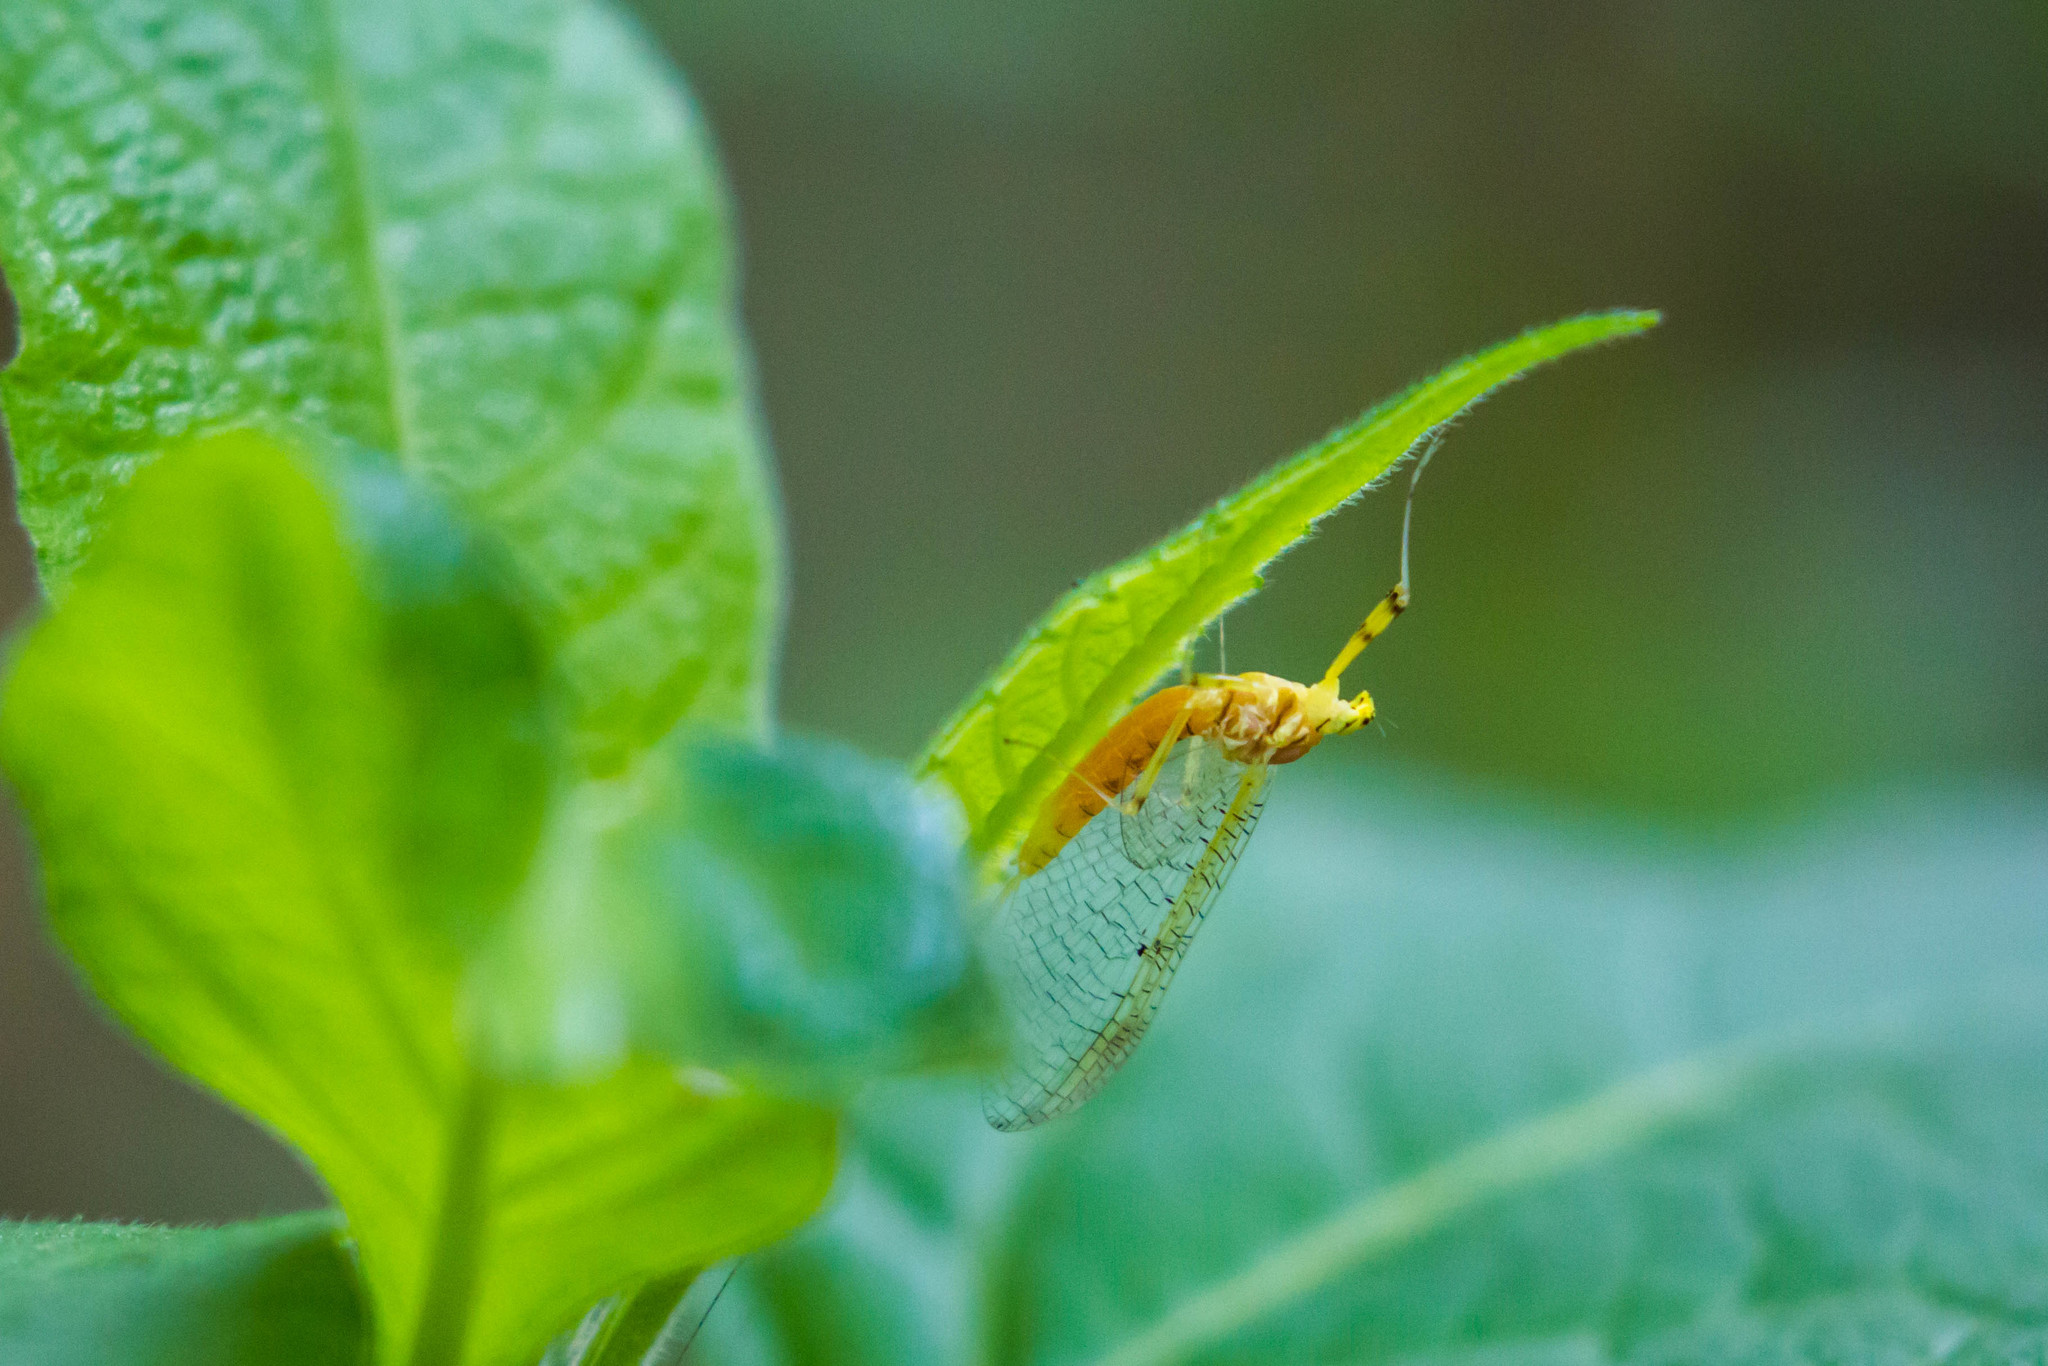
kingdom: Animalia
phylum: Arthropoda
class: Insecta
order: Ephemeroptera
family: Heptageniidae
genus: Stenacron
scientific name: Stenacron interpunctatum
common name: Orange cahill
